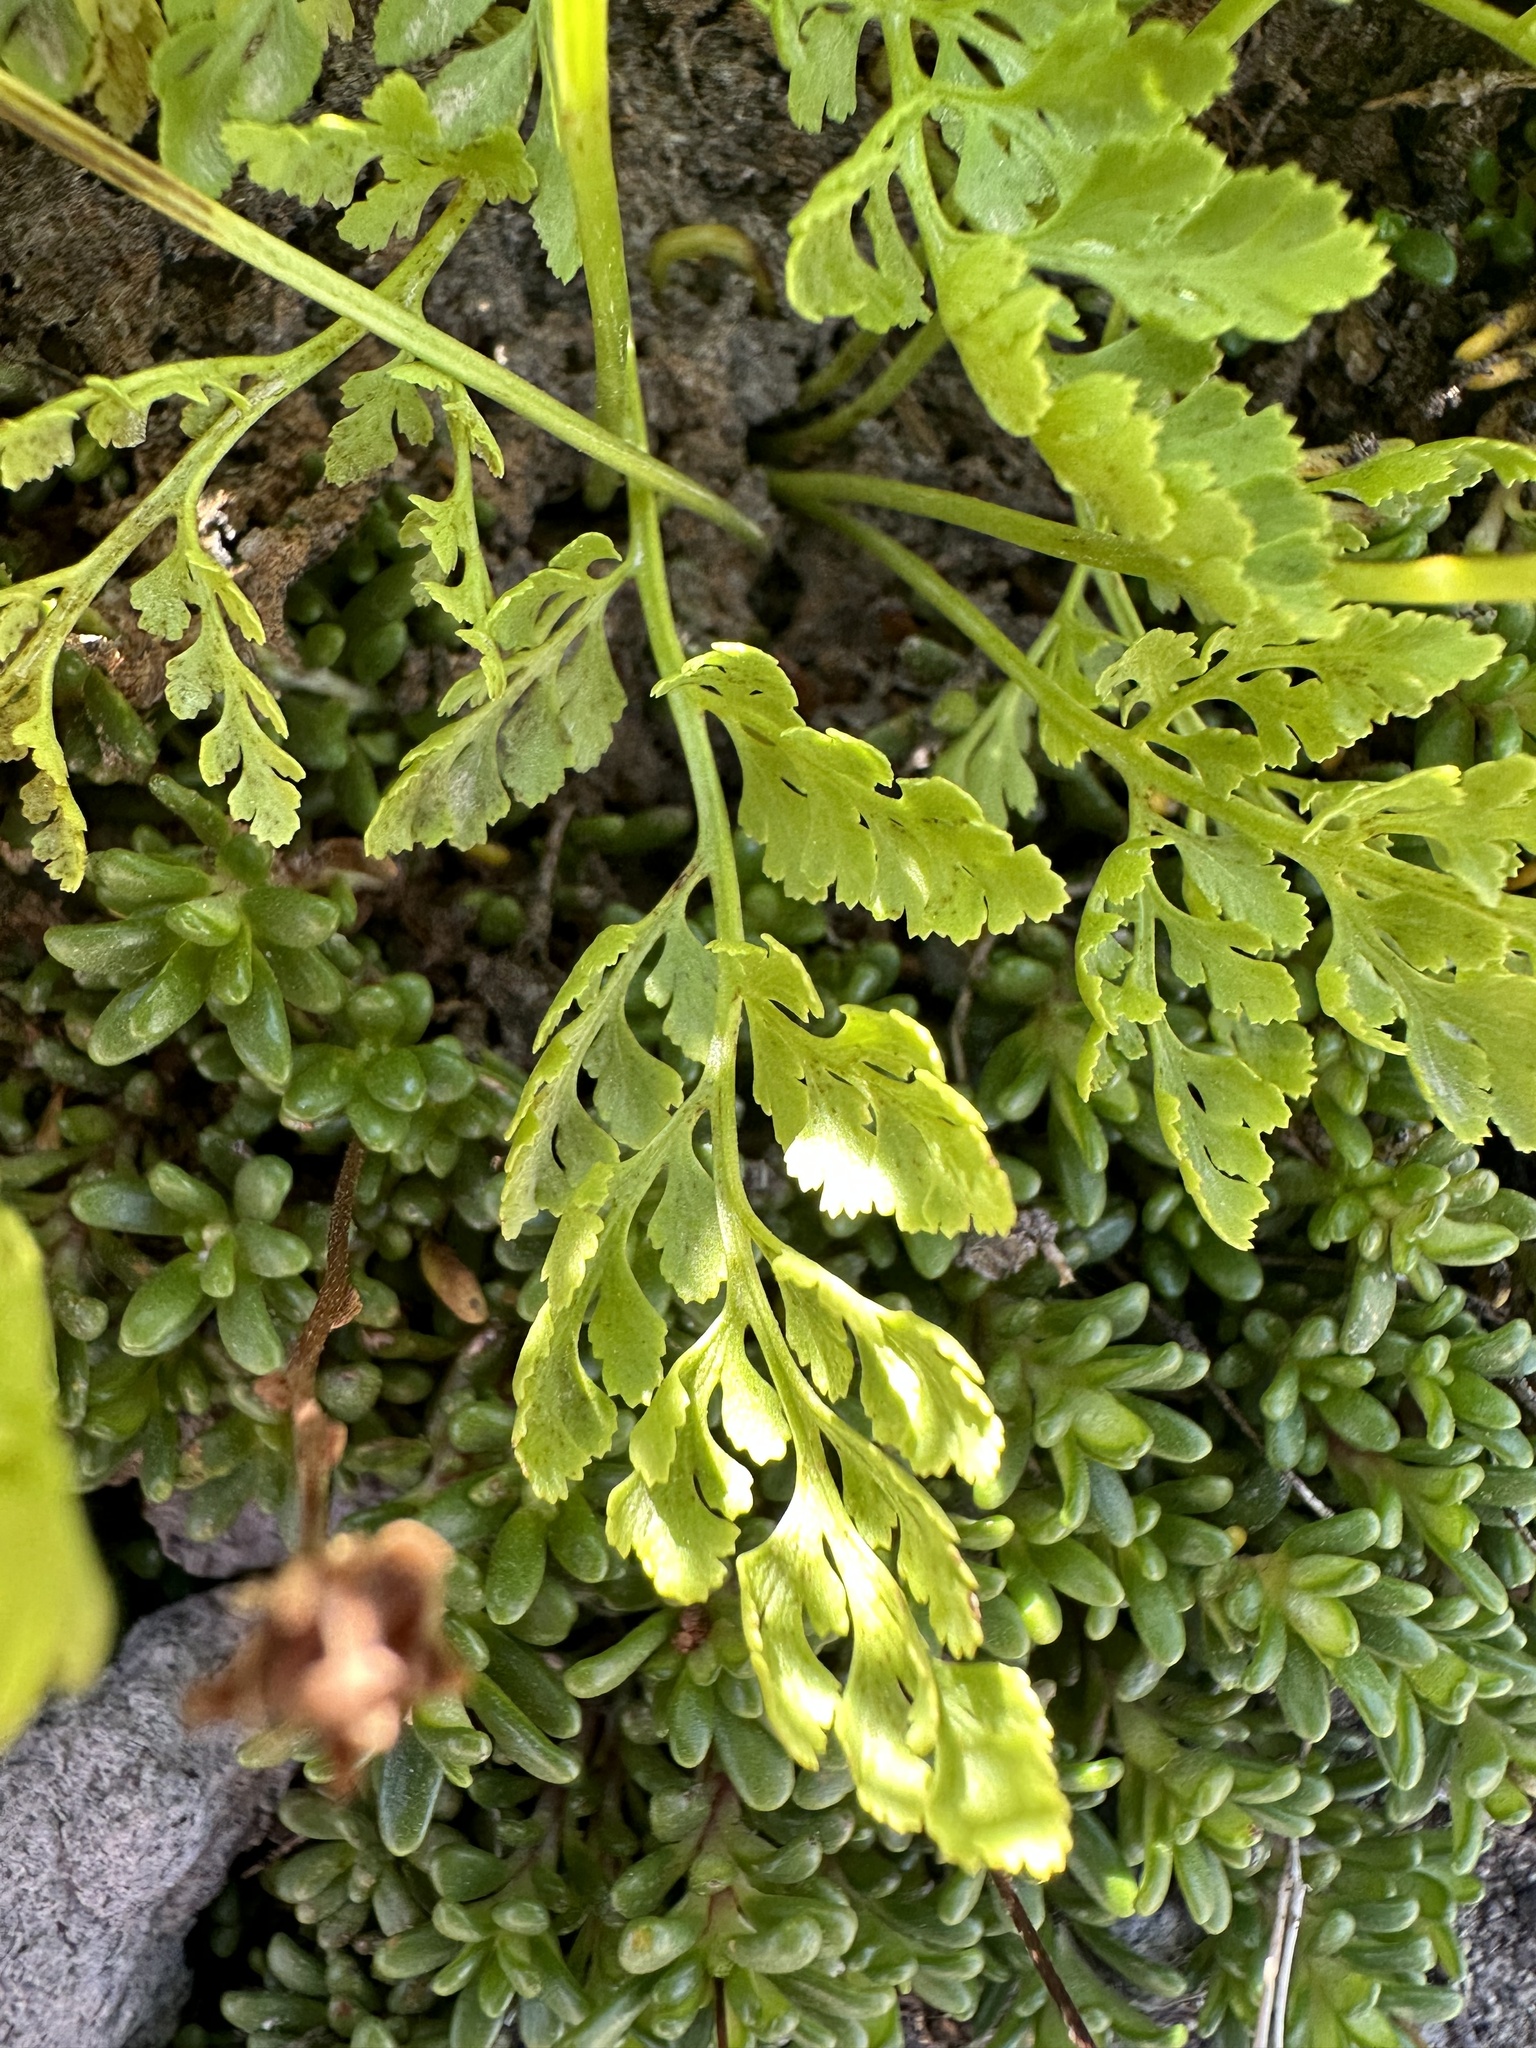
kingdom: Plantae
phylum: Tracheophyta
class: Polypodiopsida
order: Polypodiales
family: Pteridaceae
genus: Cryptogramma
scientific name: Cryptogramma cascadensis
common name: Cascade parsley fern
